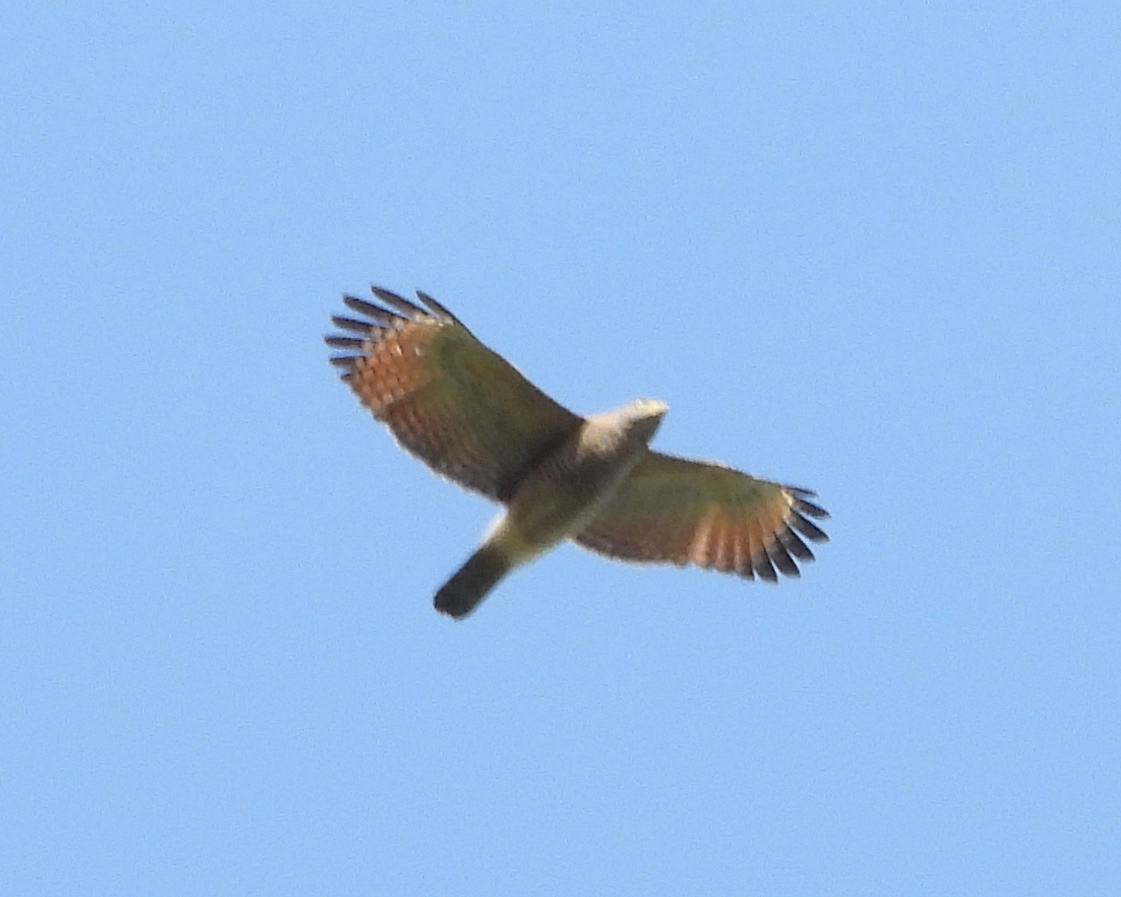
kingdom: Animalia
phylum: Chordata
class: Aves
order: Accipitriformes
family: Accipitridae
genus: Rupornis
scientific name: Rupornis magnirostris
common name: Roadside hawk
